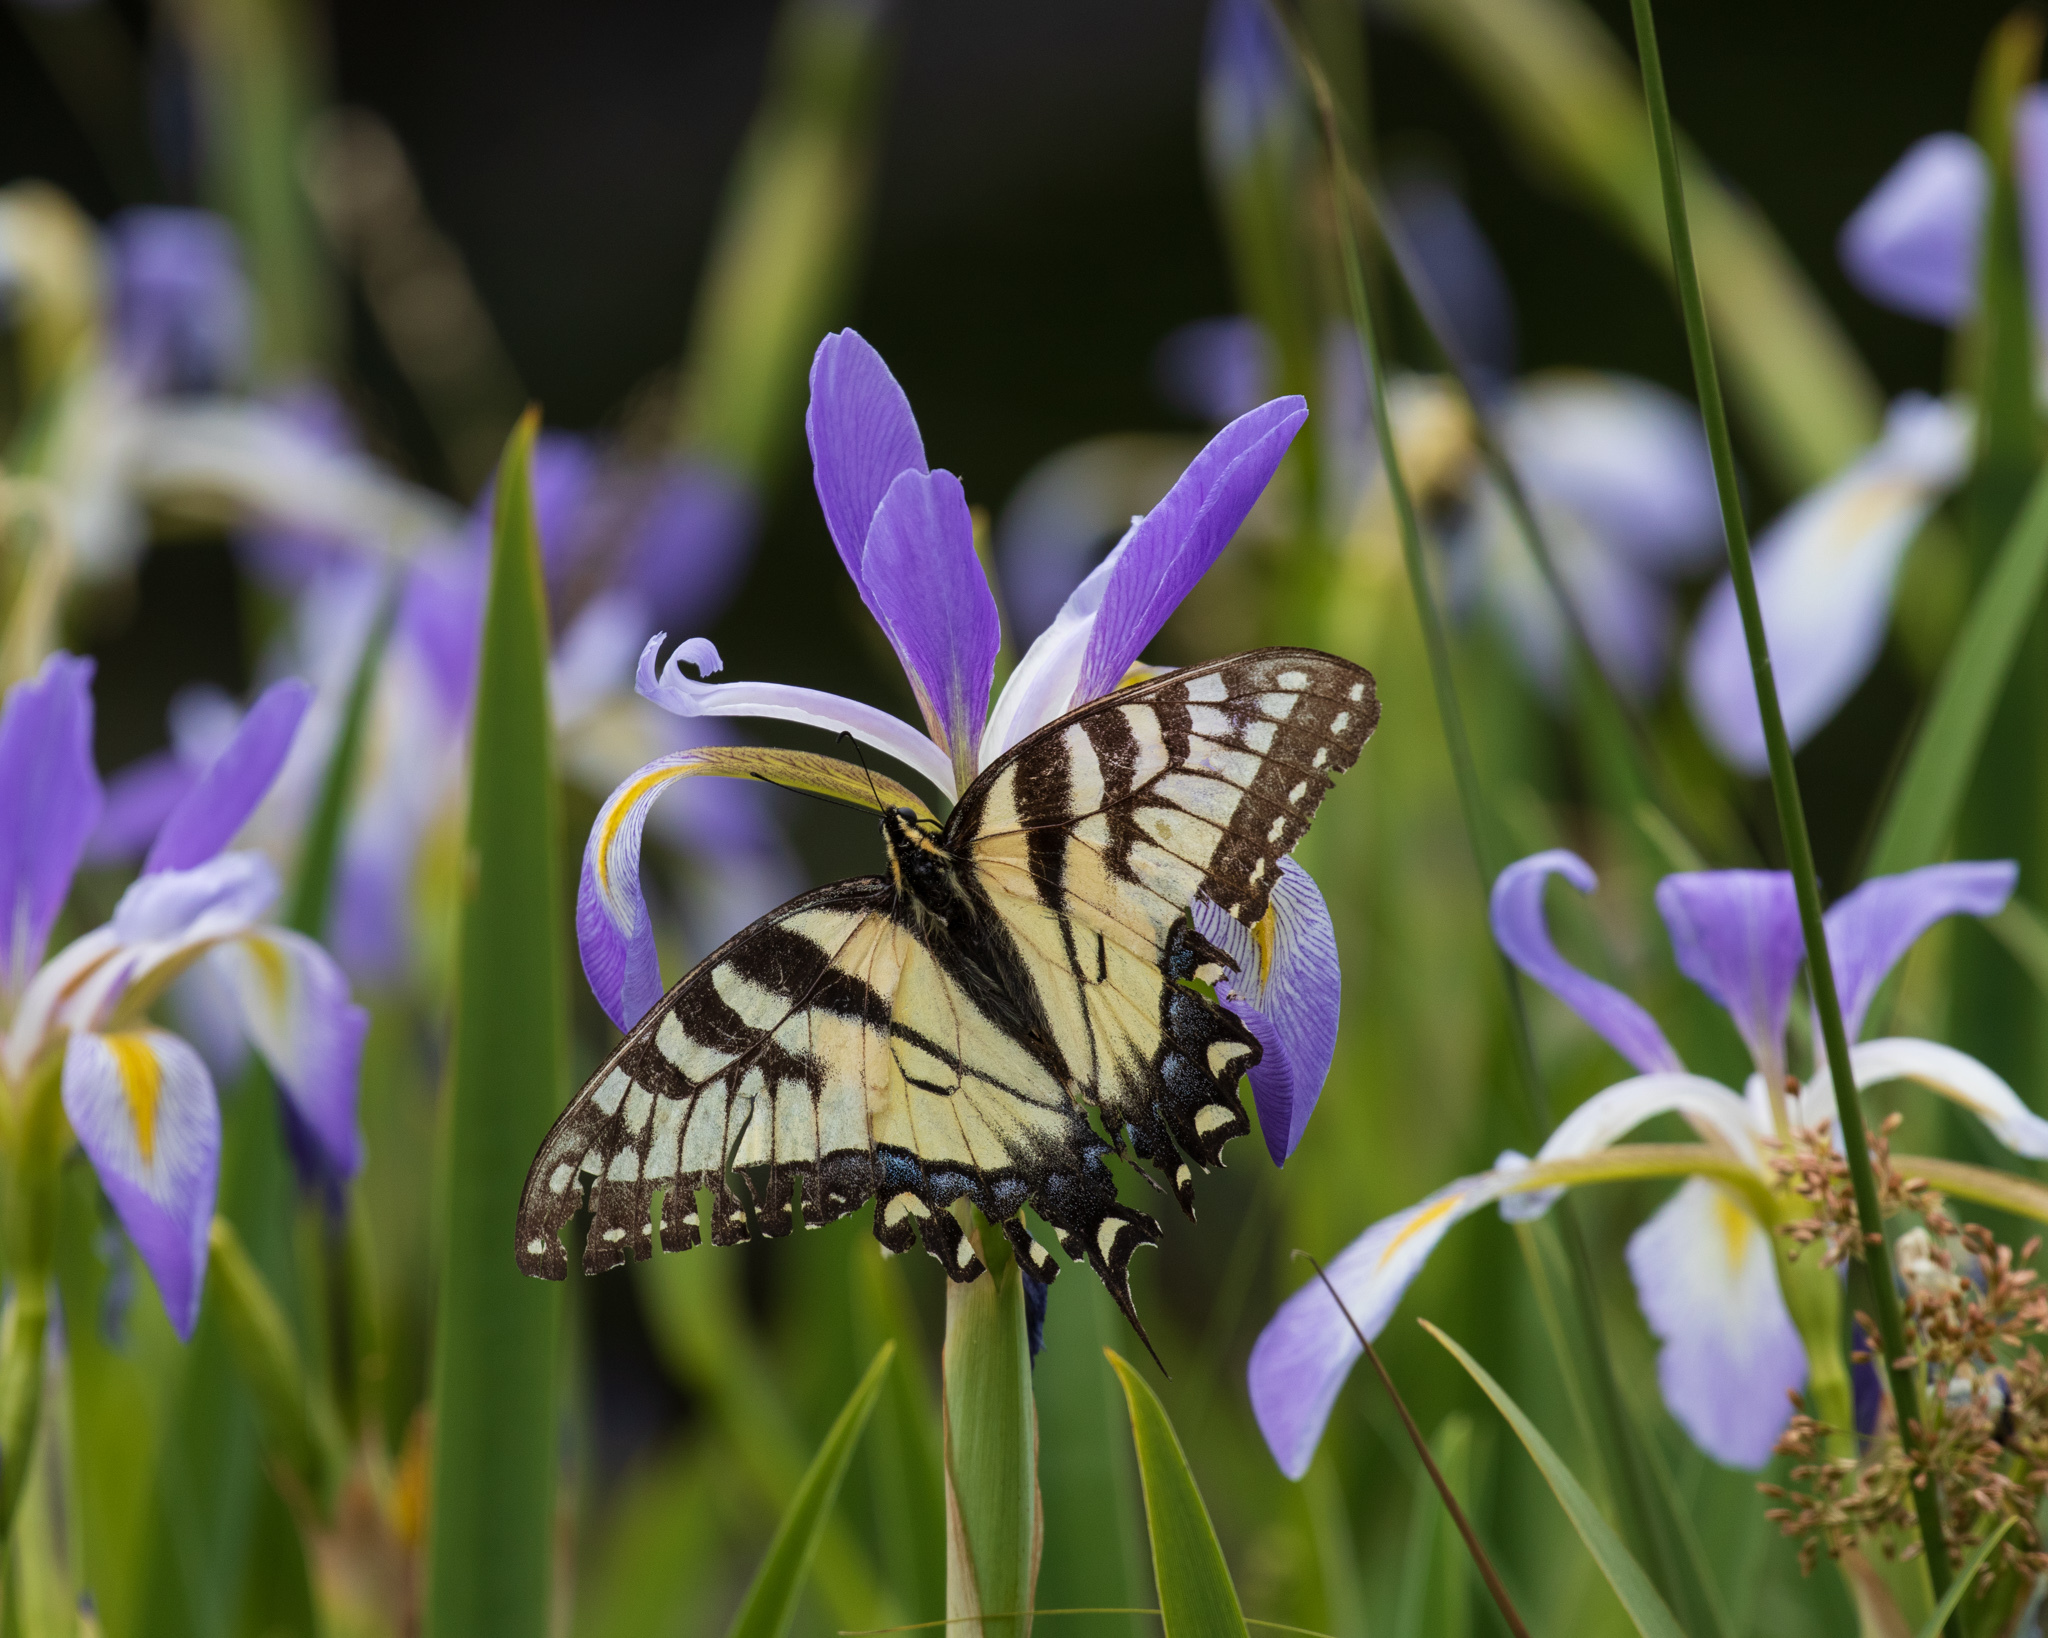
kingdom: Animalia
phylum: Arthropoda
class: Insecta
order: Lepidoptera
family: Papilionidae
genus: Papilio
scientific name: Papilio glaucus
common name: Tiger swallowtail
